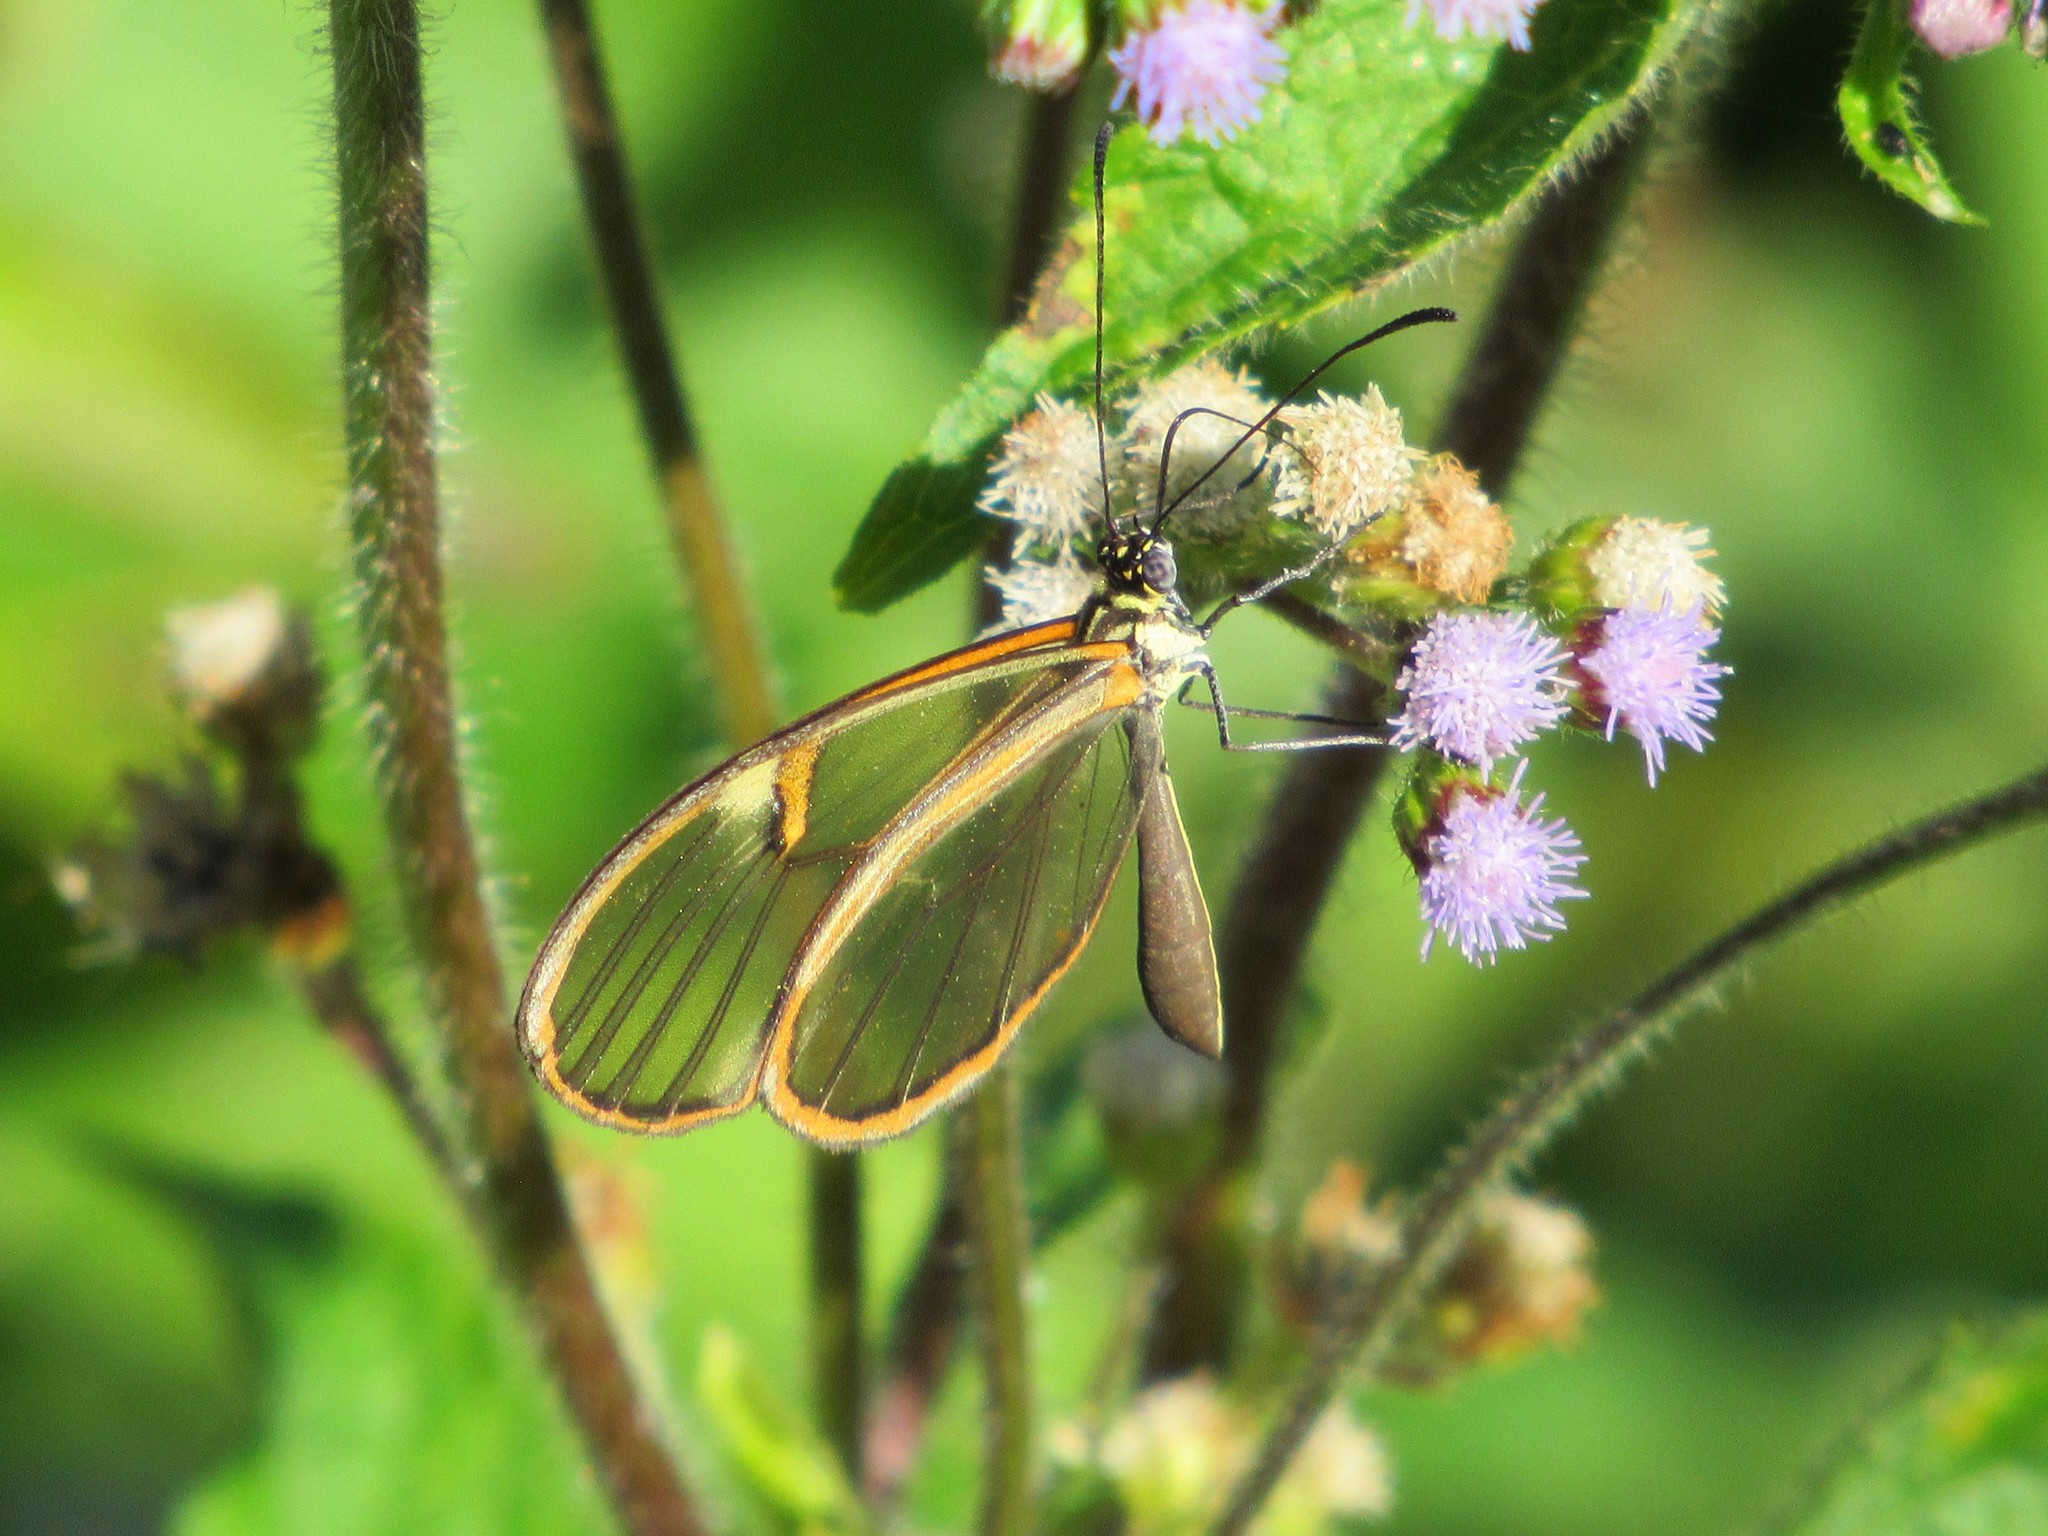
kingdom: Animalia
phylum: Arthropoda
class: Insecta
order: Lepidoptera
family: Nymphalidae
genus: Episcada
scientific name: Episcada hymenaea
